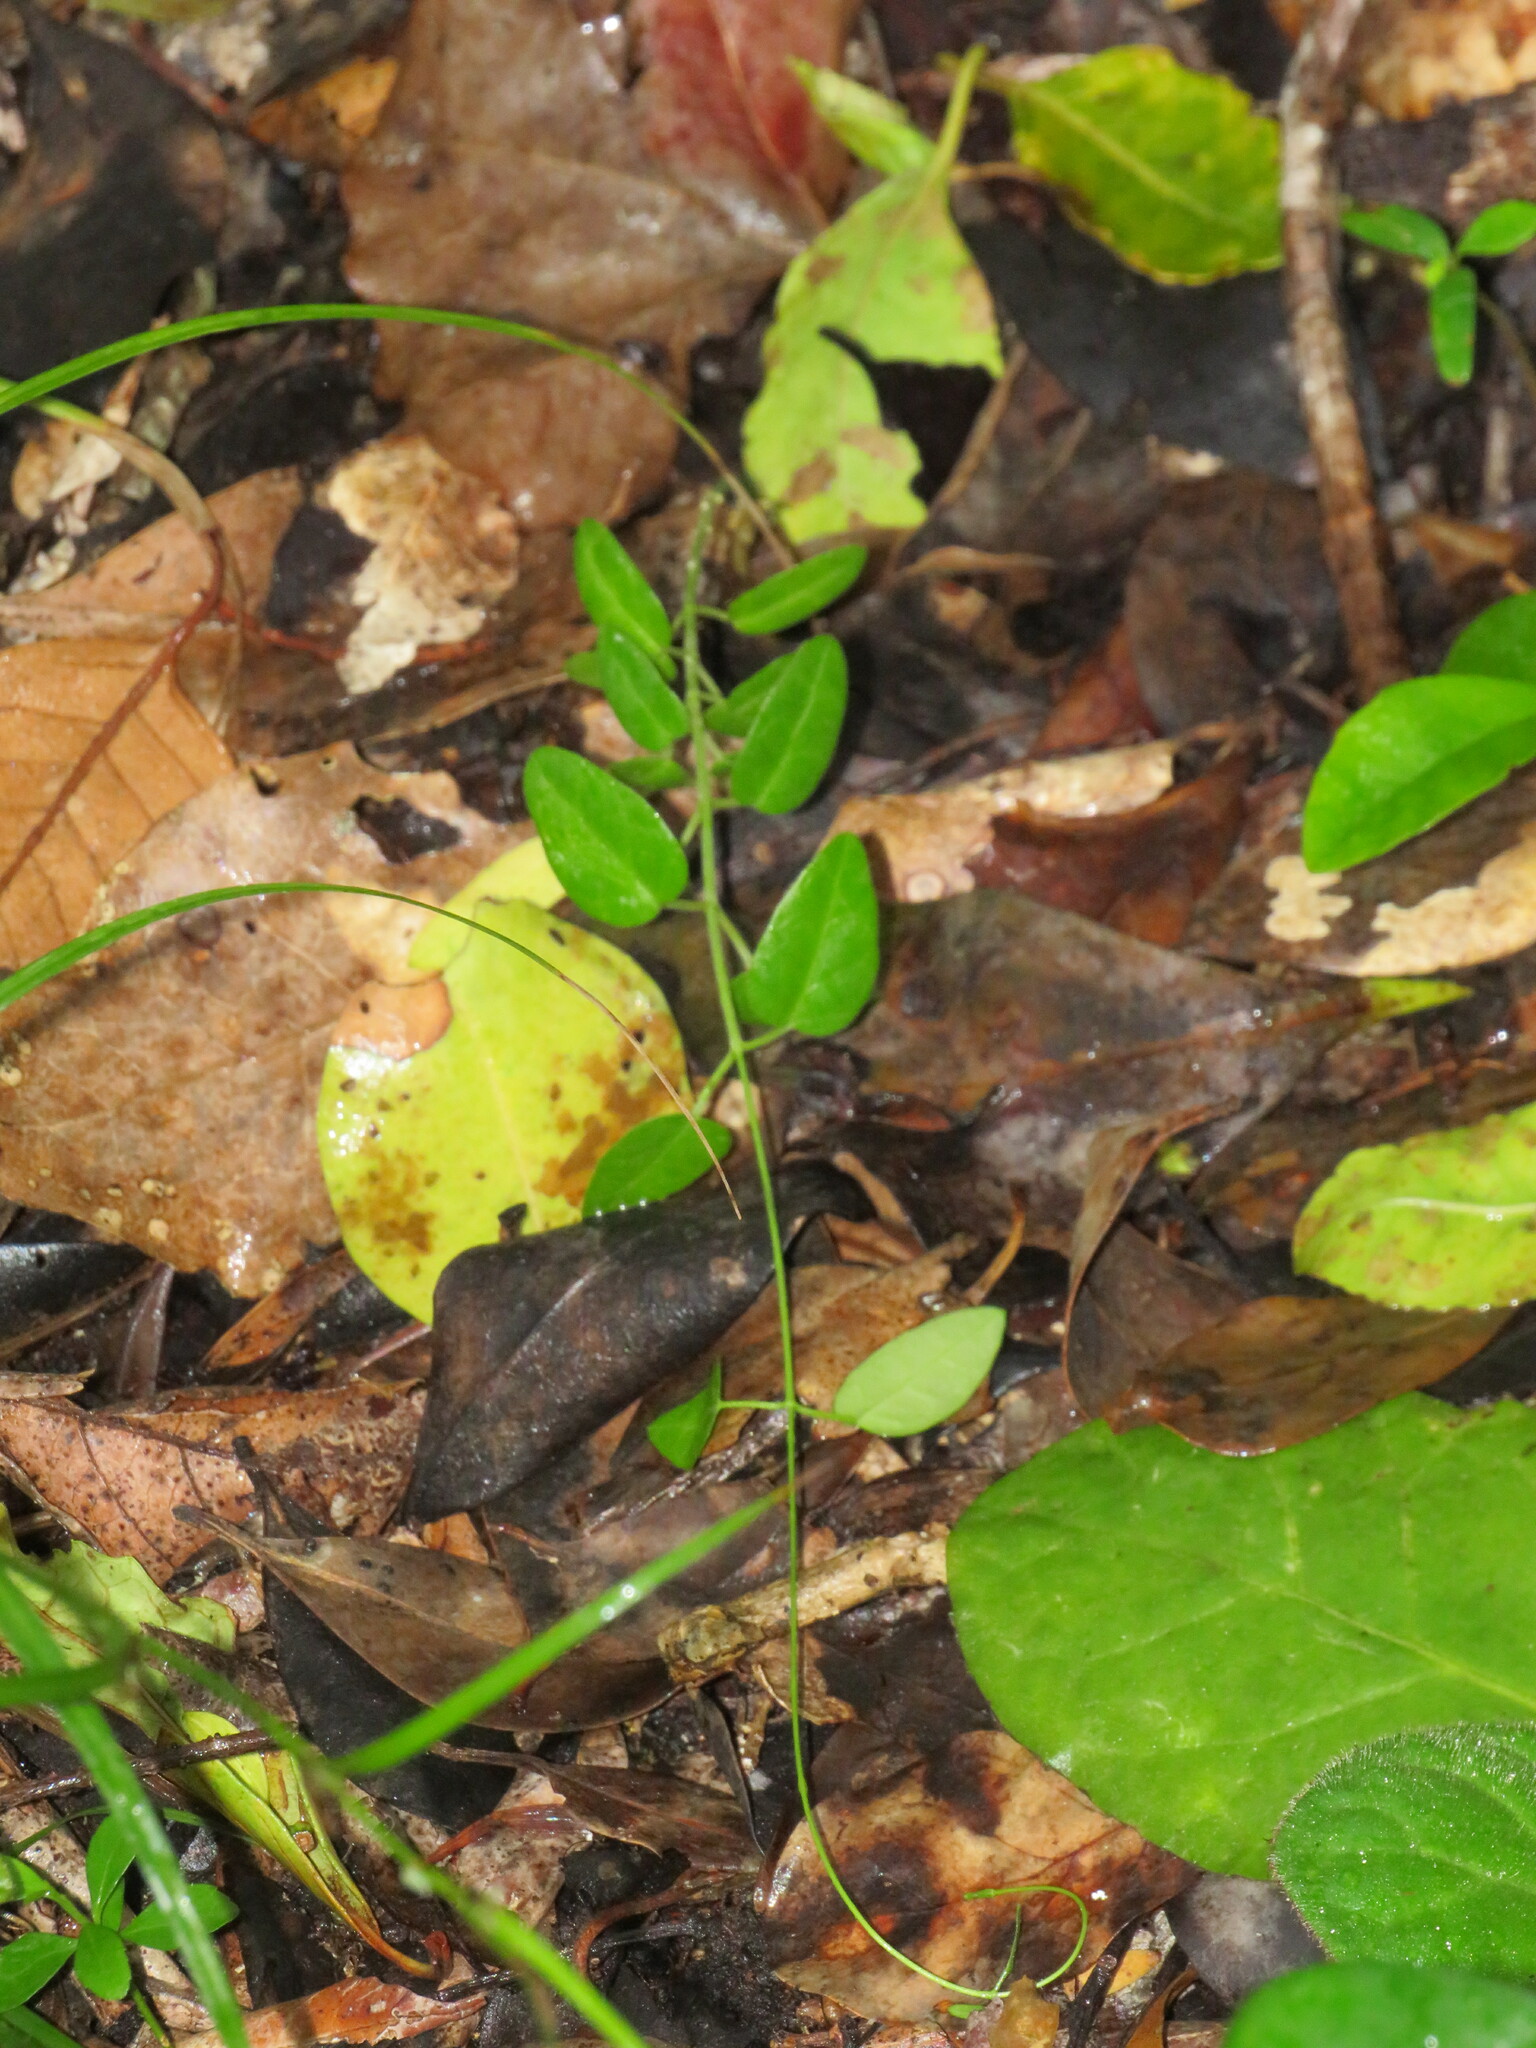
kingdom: Plantae
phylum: Tracheophyta
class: Magnoliopsida
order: Gentianales
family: Apocynaceae
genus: Cynanchum
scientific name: Cynanchum africanum
